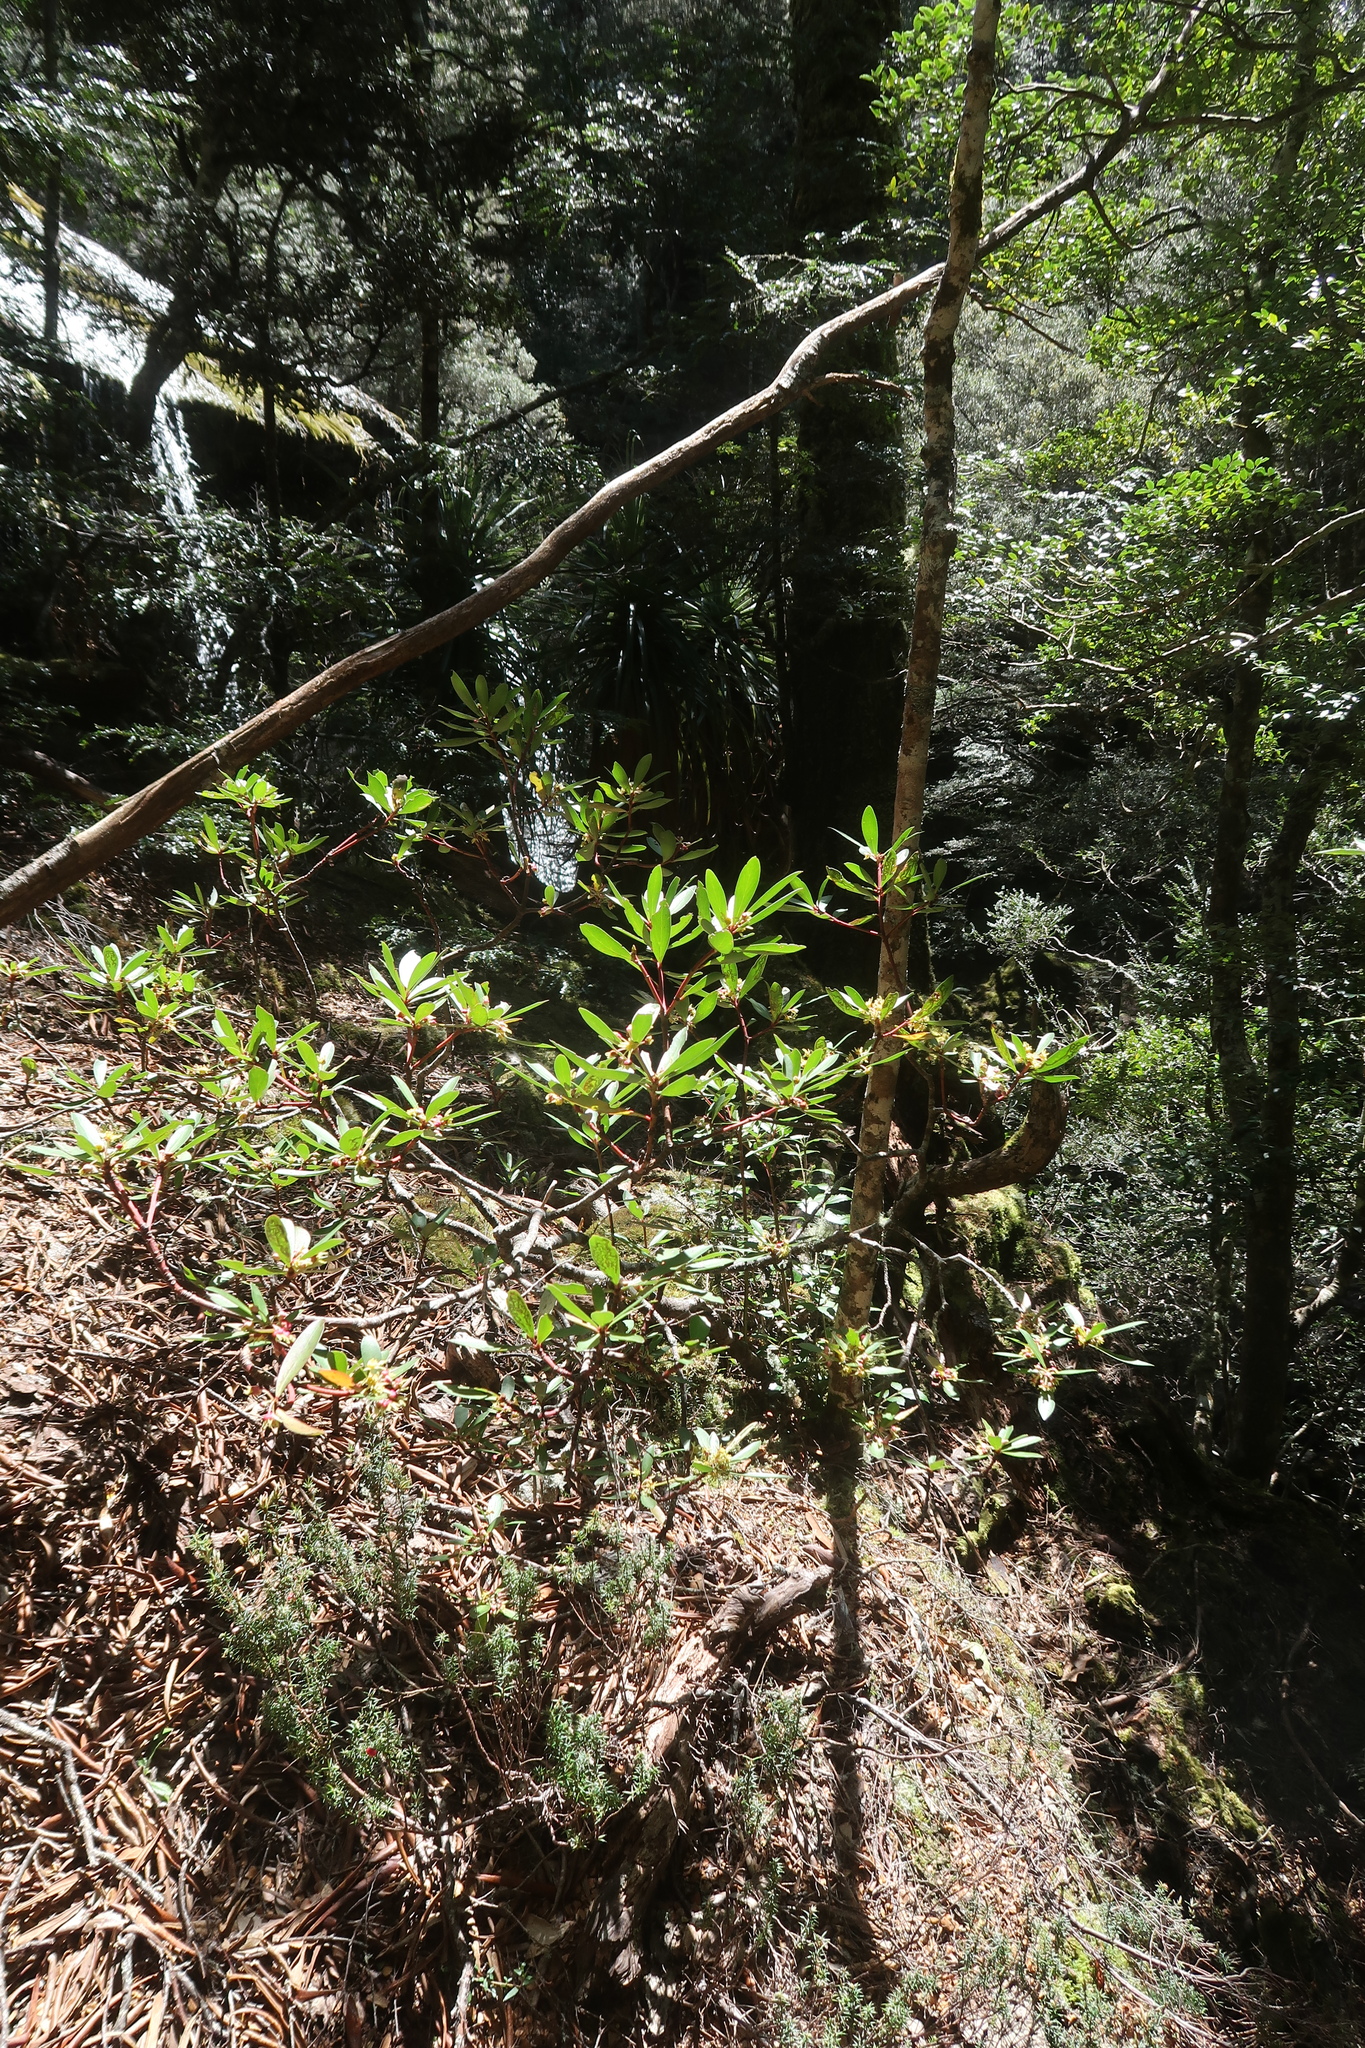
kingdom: Plantae
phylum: Tracheophyta
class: Magnoliopsida
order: Canellales
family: Winteraceae
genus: Drimys
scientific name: Drimys aromatica
